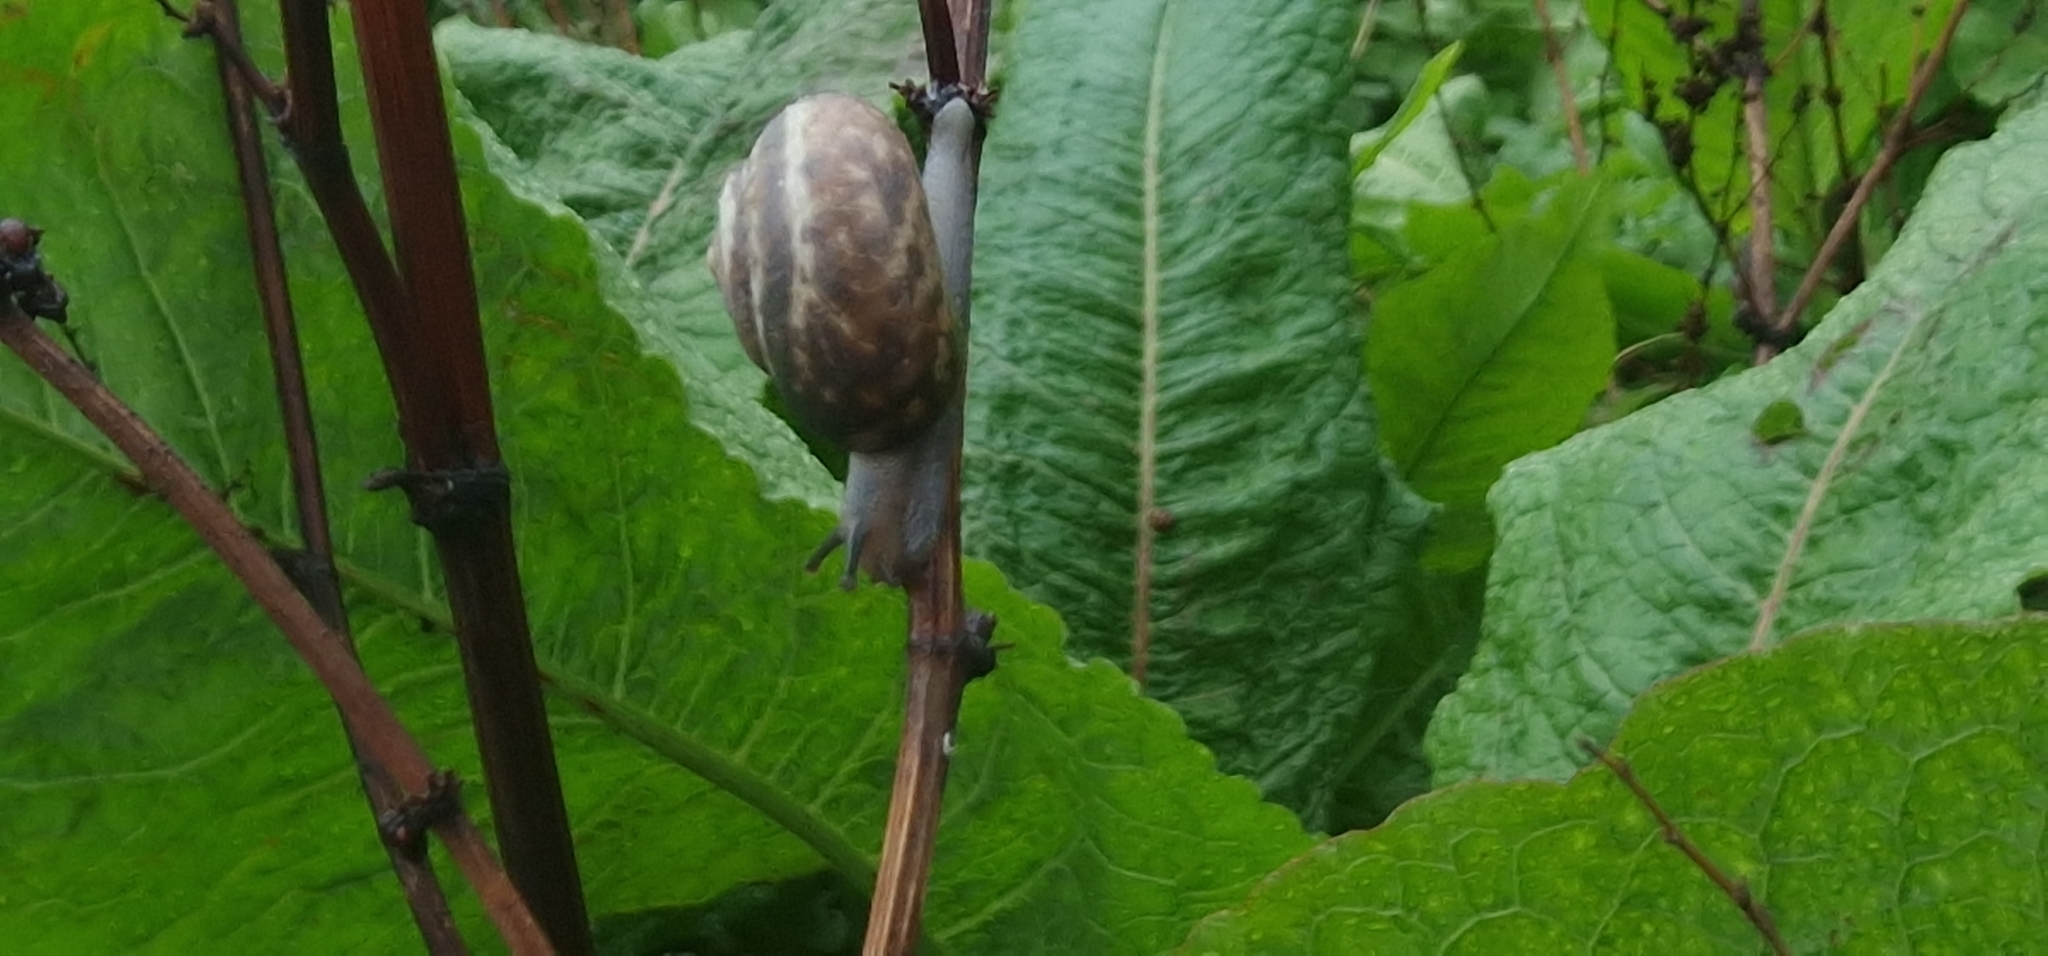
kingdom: Animalia
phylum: Mollusca
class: Gastropoda
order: Stylommatophora
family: Hygromiidae
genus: Monacha
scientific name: Monacha cantiana
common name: Kentish snail
